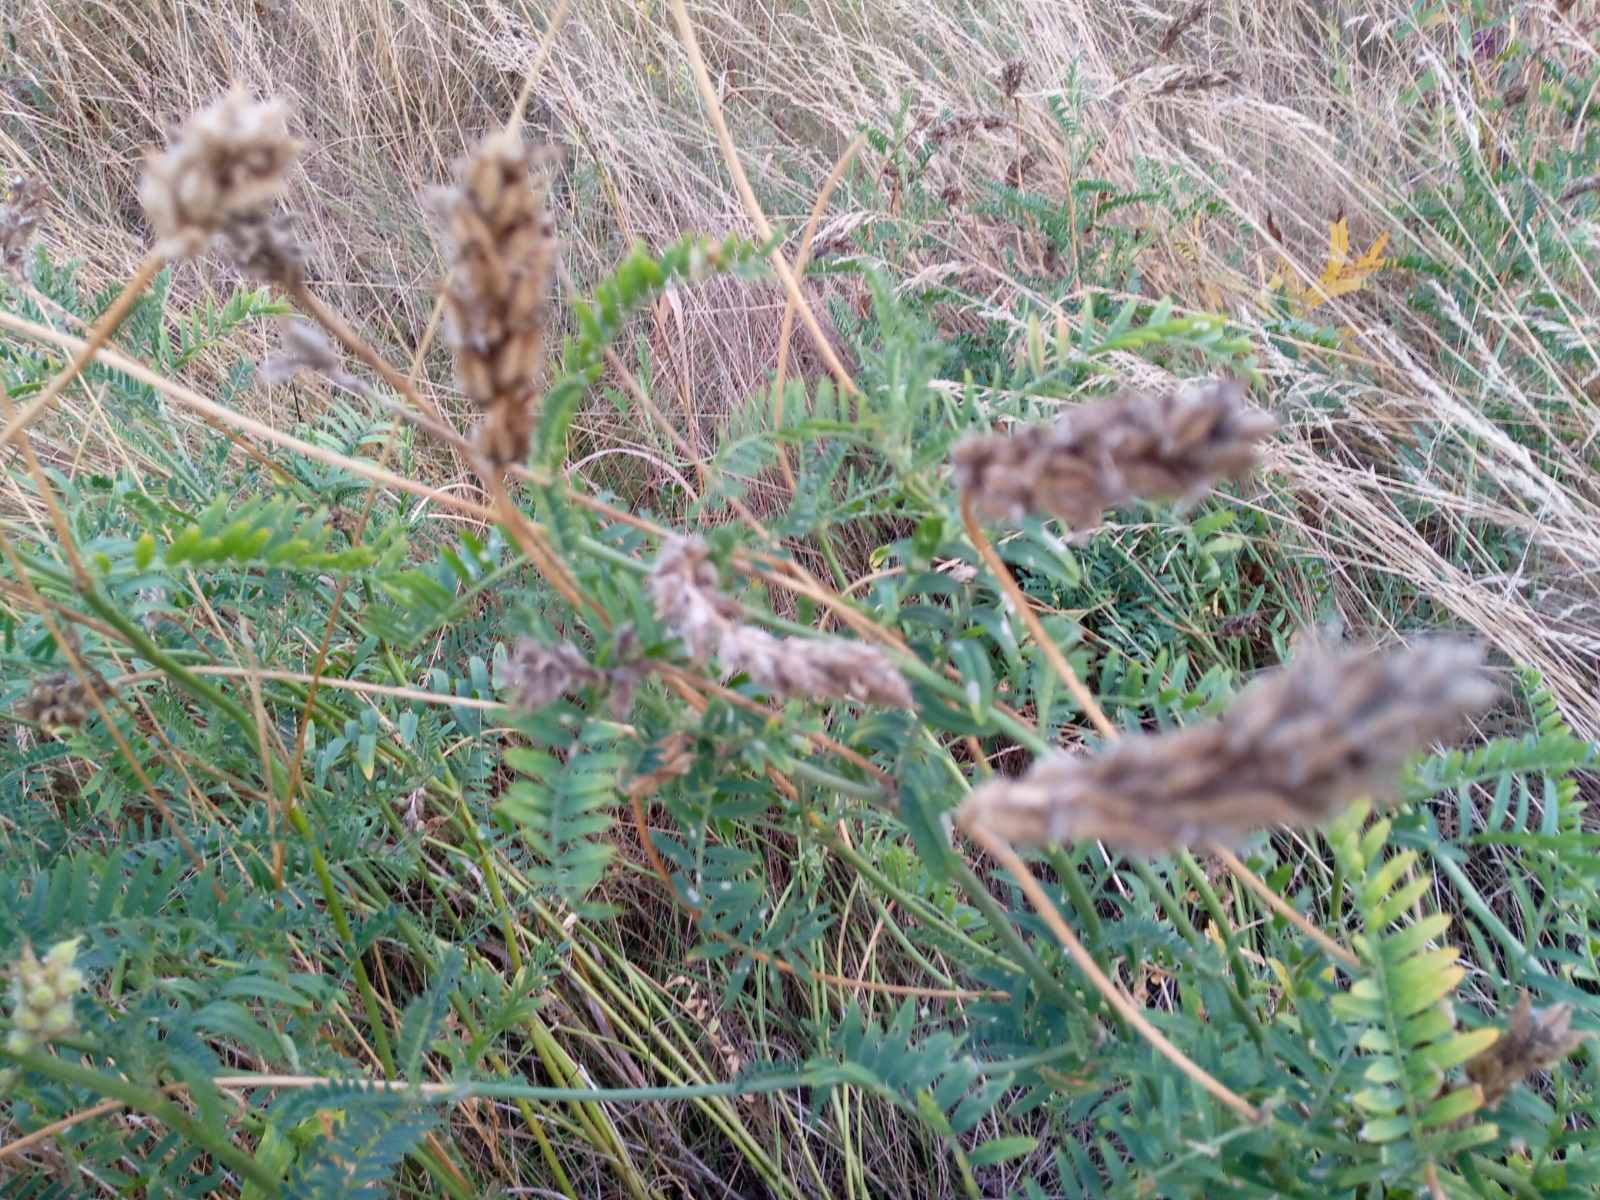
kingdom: Plantae
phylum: Tracheophyta
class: Magnoliopsida
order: Fabales
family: Fabaceae
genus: Astragalus
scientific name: Astragalus onobrychis
